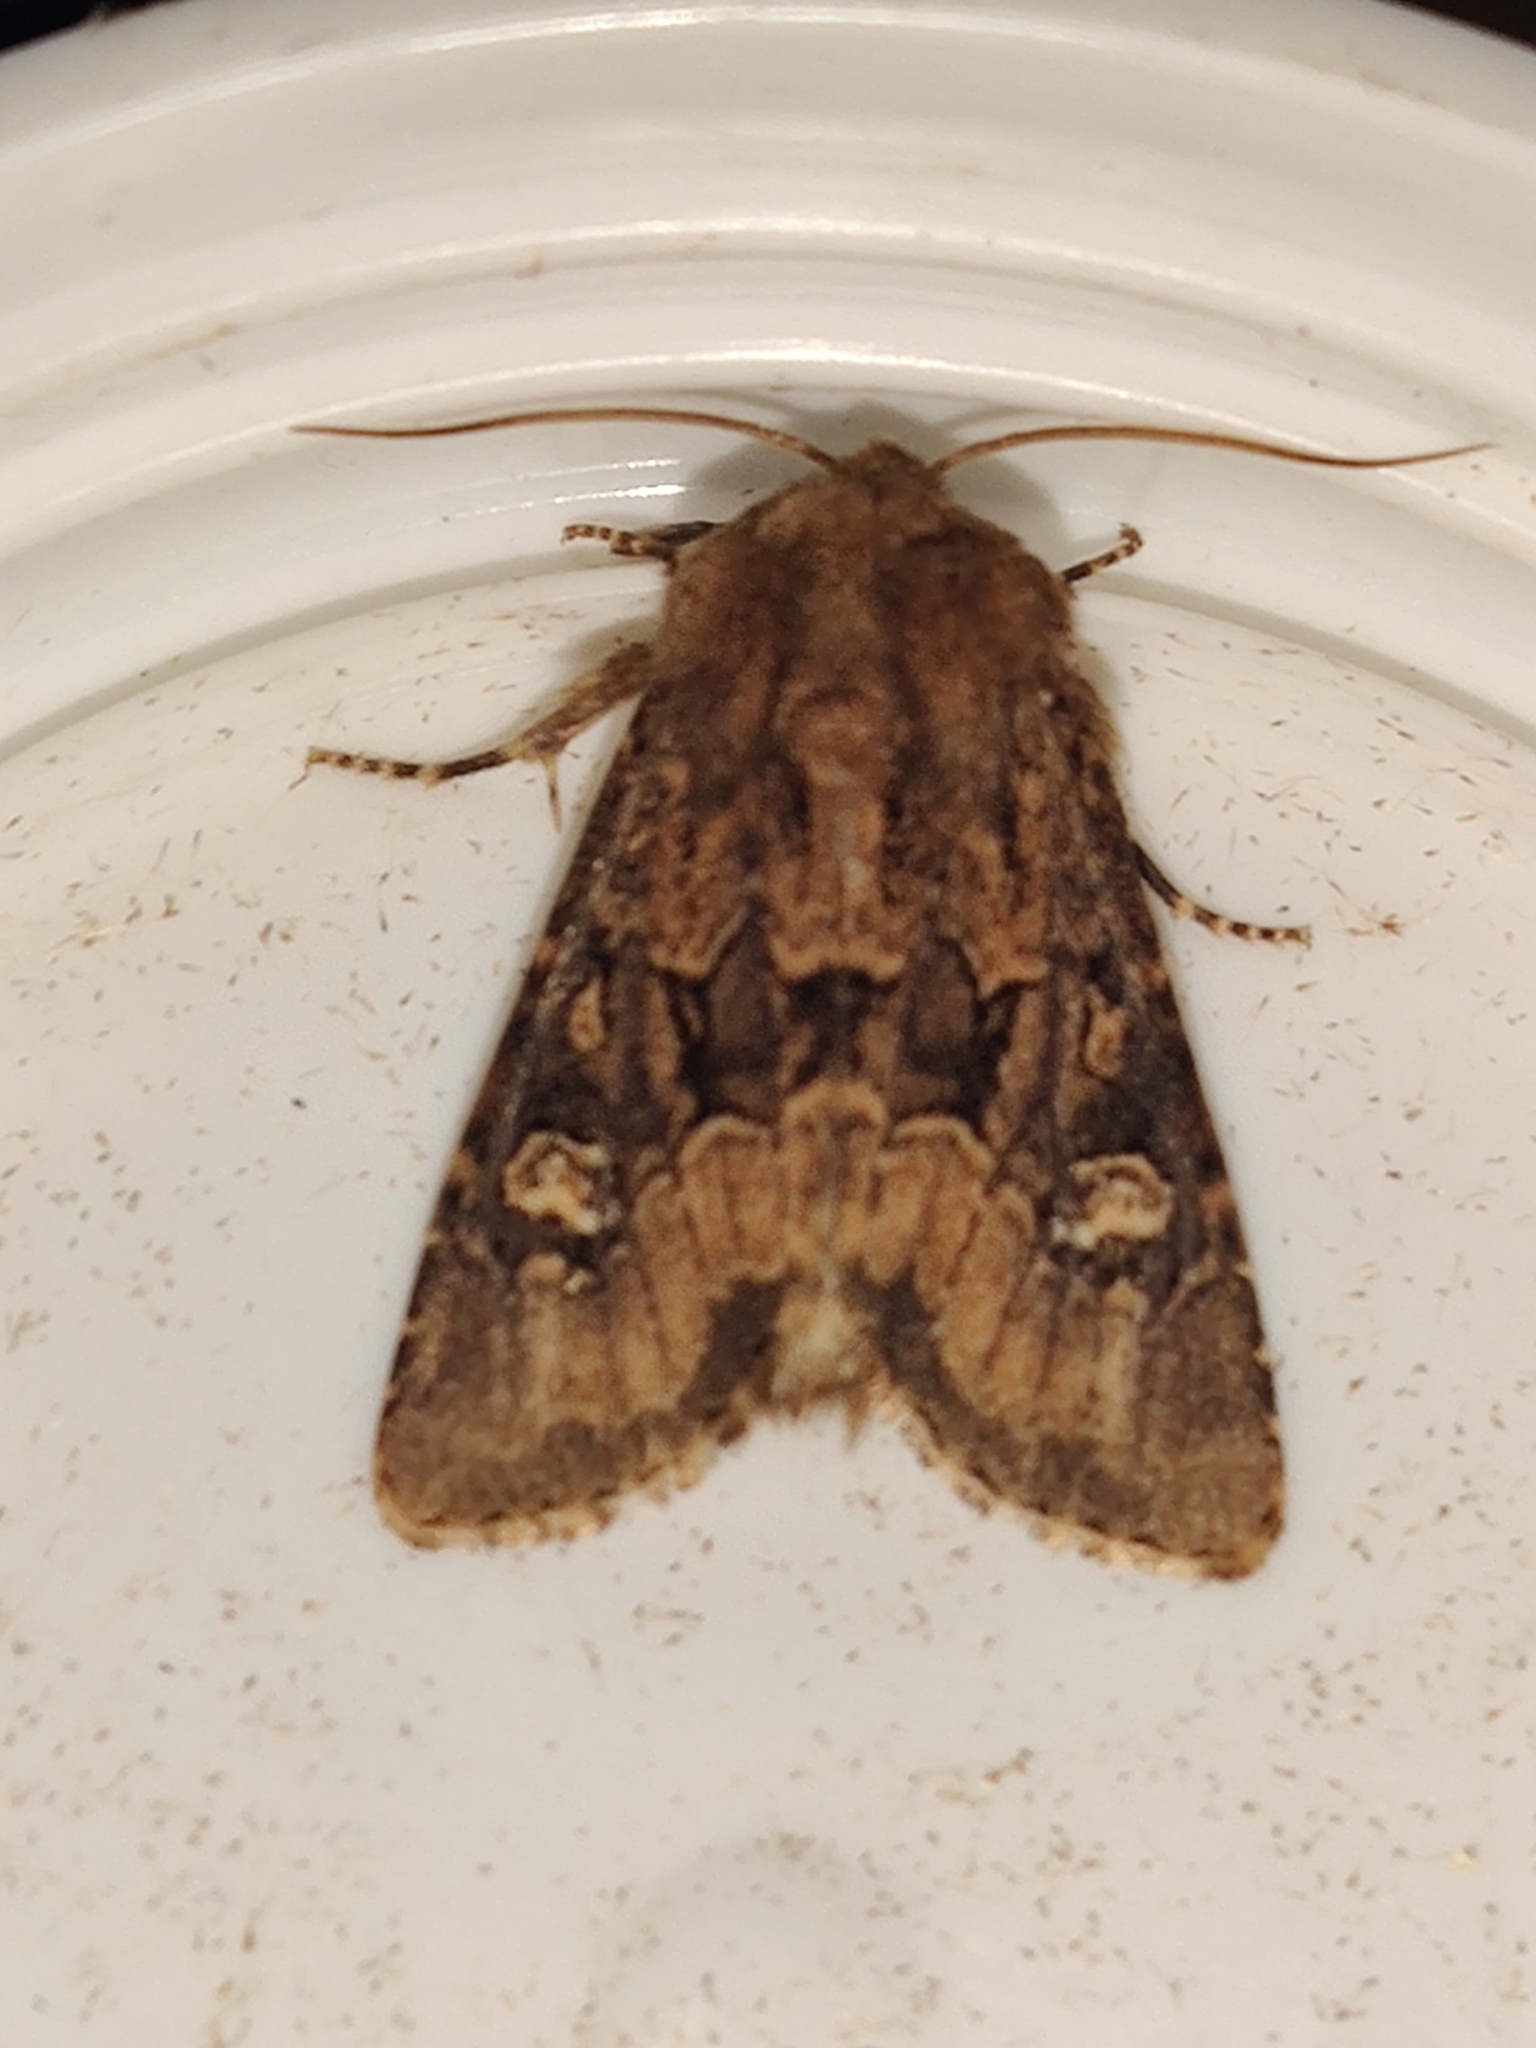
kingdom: Animalia
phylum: Arthropoda
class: Insecta
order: Lepidoptera
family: Noctuidae
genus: Luperina
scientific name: Luperina testacea
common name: Flounced rustic
